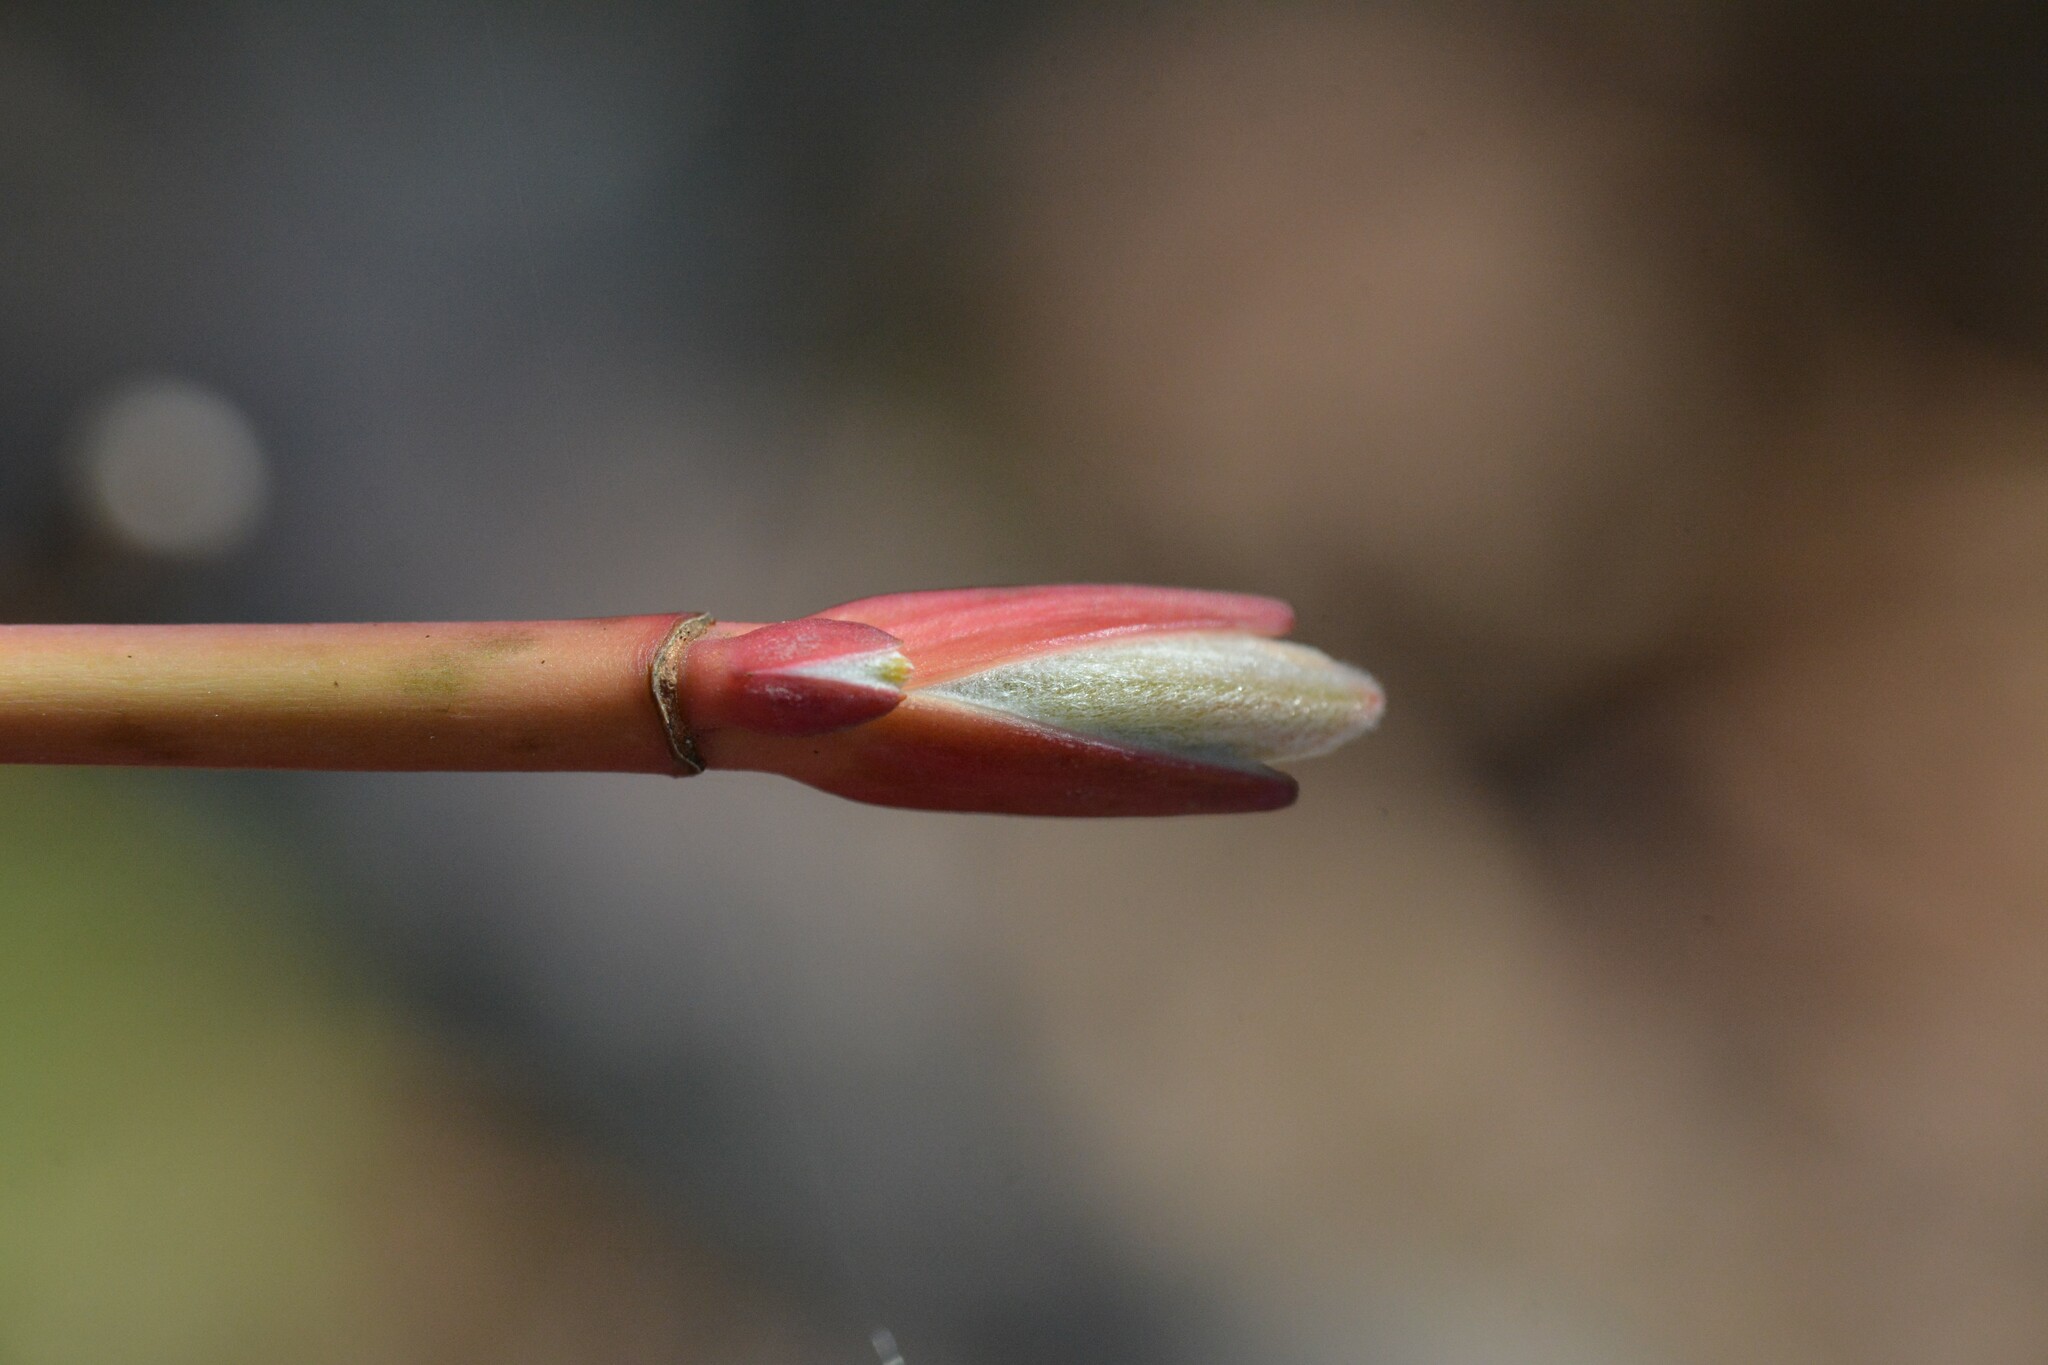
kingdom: Plantae
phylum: Tracheophyta
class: Magnoliopsida
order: Sapindales
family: Sapindaceae
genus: Acer
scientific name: Acer pensylvanicum
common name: Moosewood
